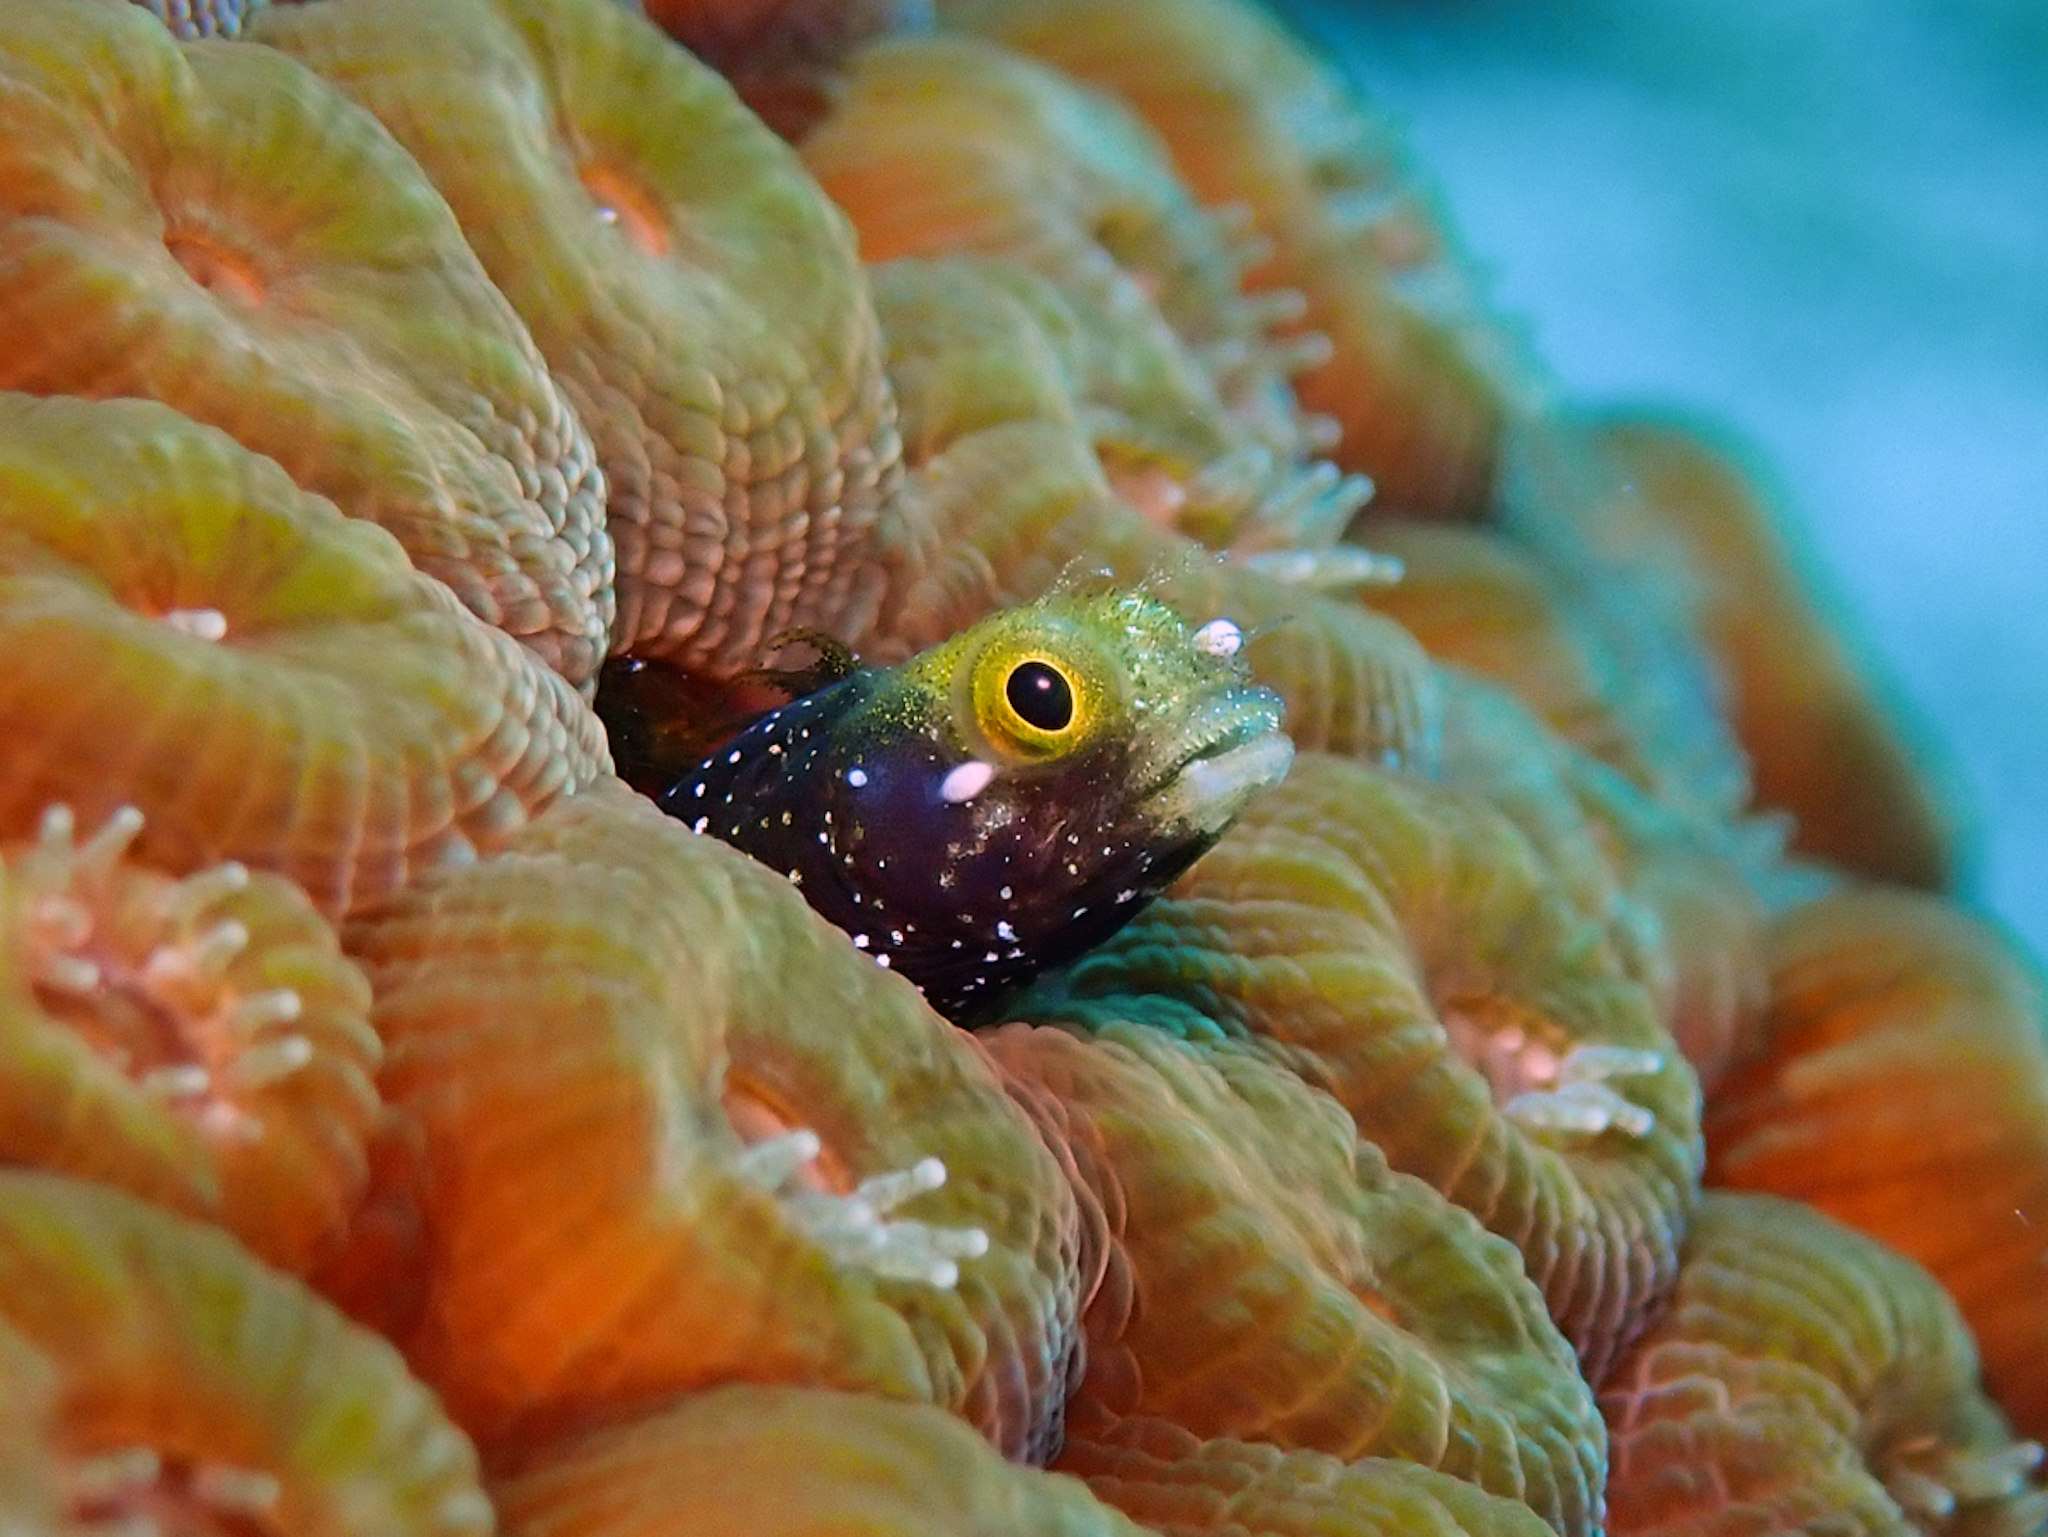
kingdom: Animalia
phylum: Chordata
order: Perciformes
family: Chaenopsidae
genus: Acanthemblemaria
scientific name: Acanthemblemaria spinosa
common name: Spinyhead blenny
